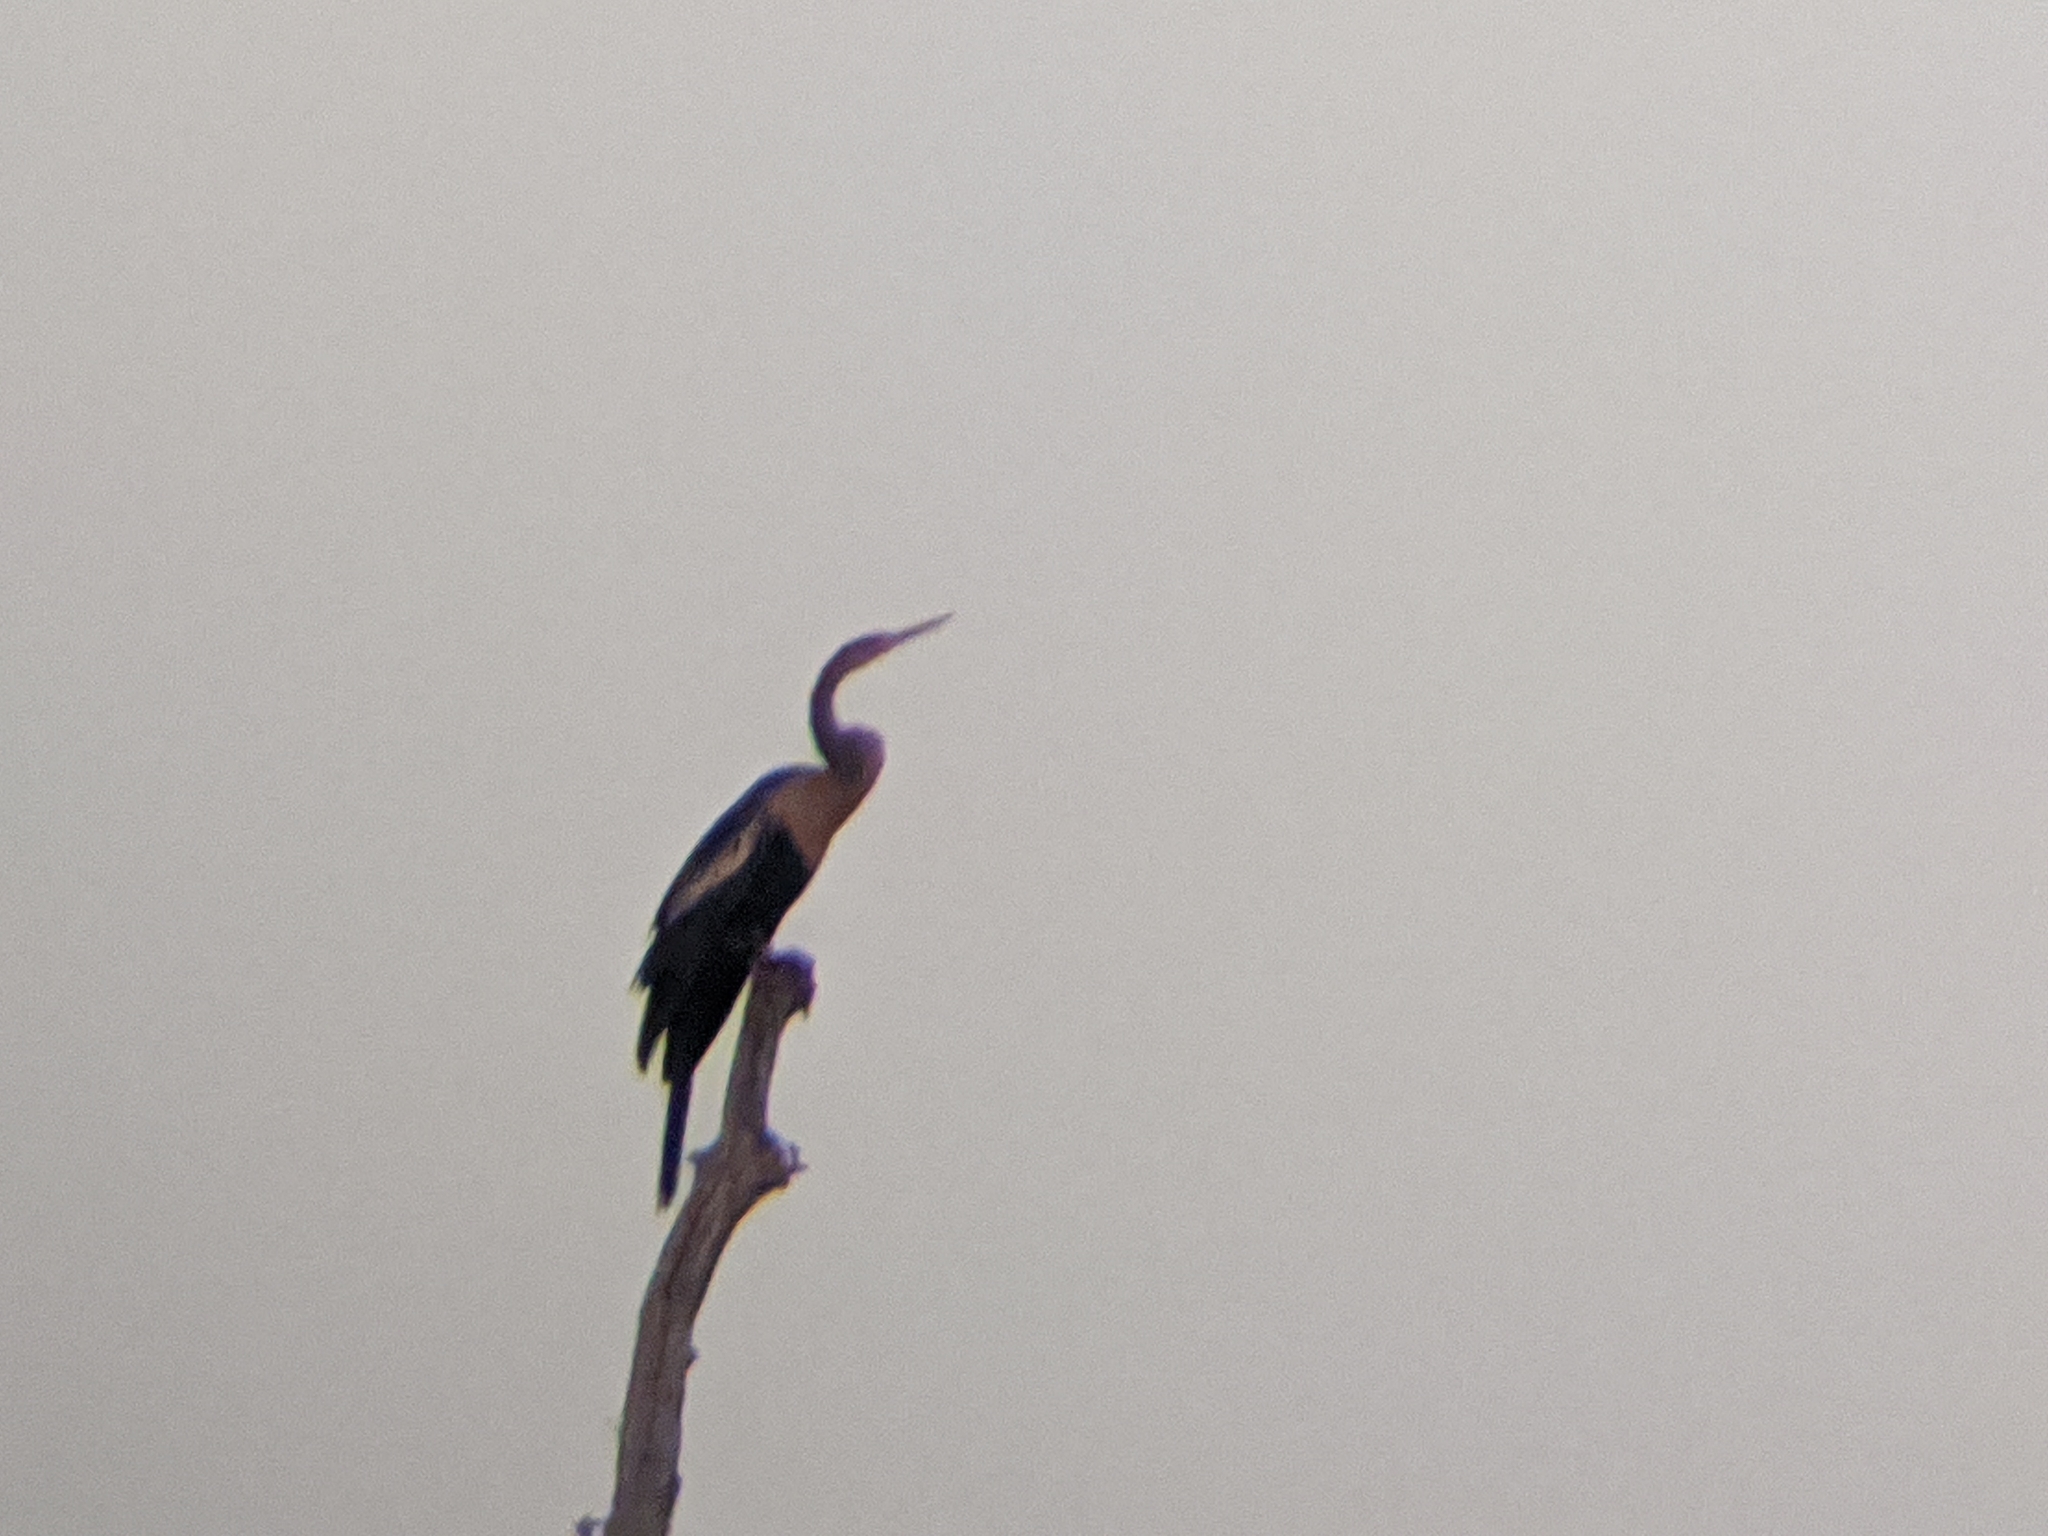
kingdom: Animalia
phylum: Chordata
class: Aves
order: Suliformes
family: Anhingidae
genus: Anhinga
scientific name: Anhinga anhinga
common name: Anhinga
